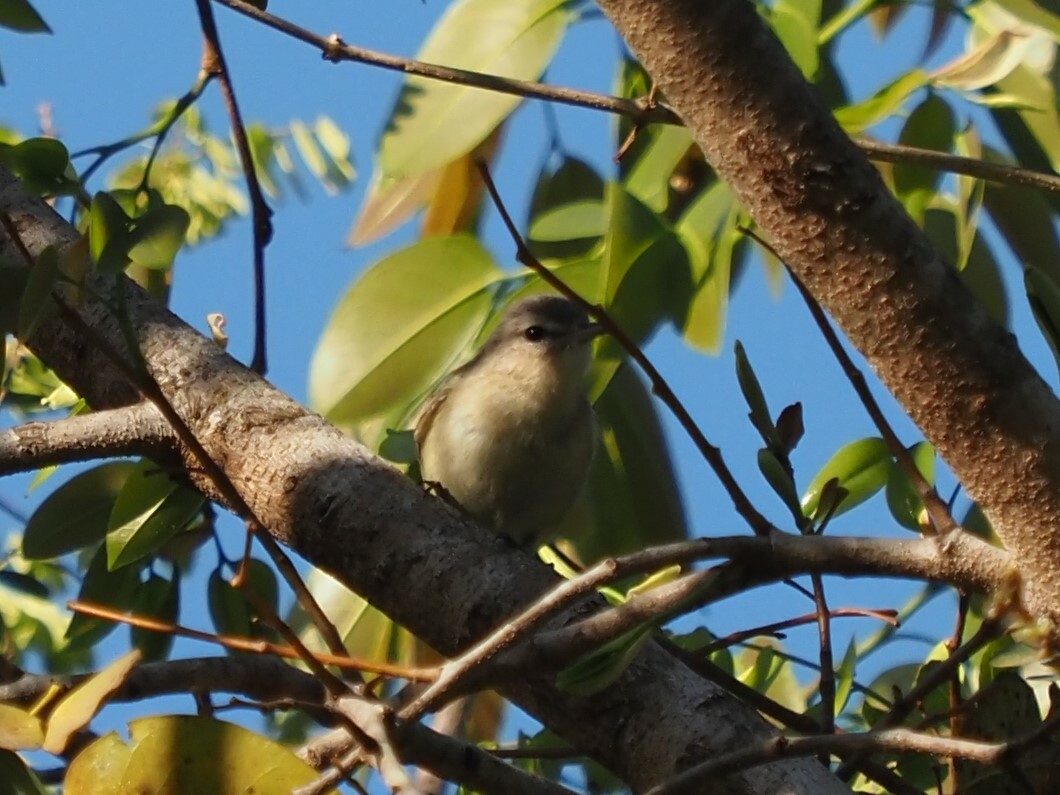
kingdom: Animalia
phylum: Chordata
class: Aves
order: Passeriformes
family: Vireonidae
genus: Vireo
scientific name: Vireo gilvus
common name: Warbling vireo
